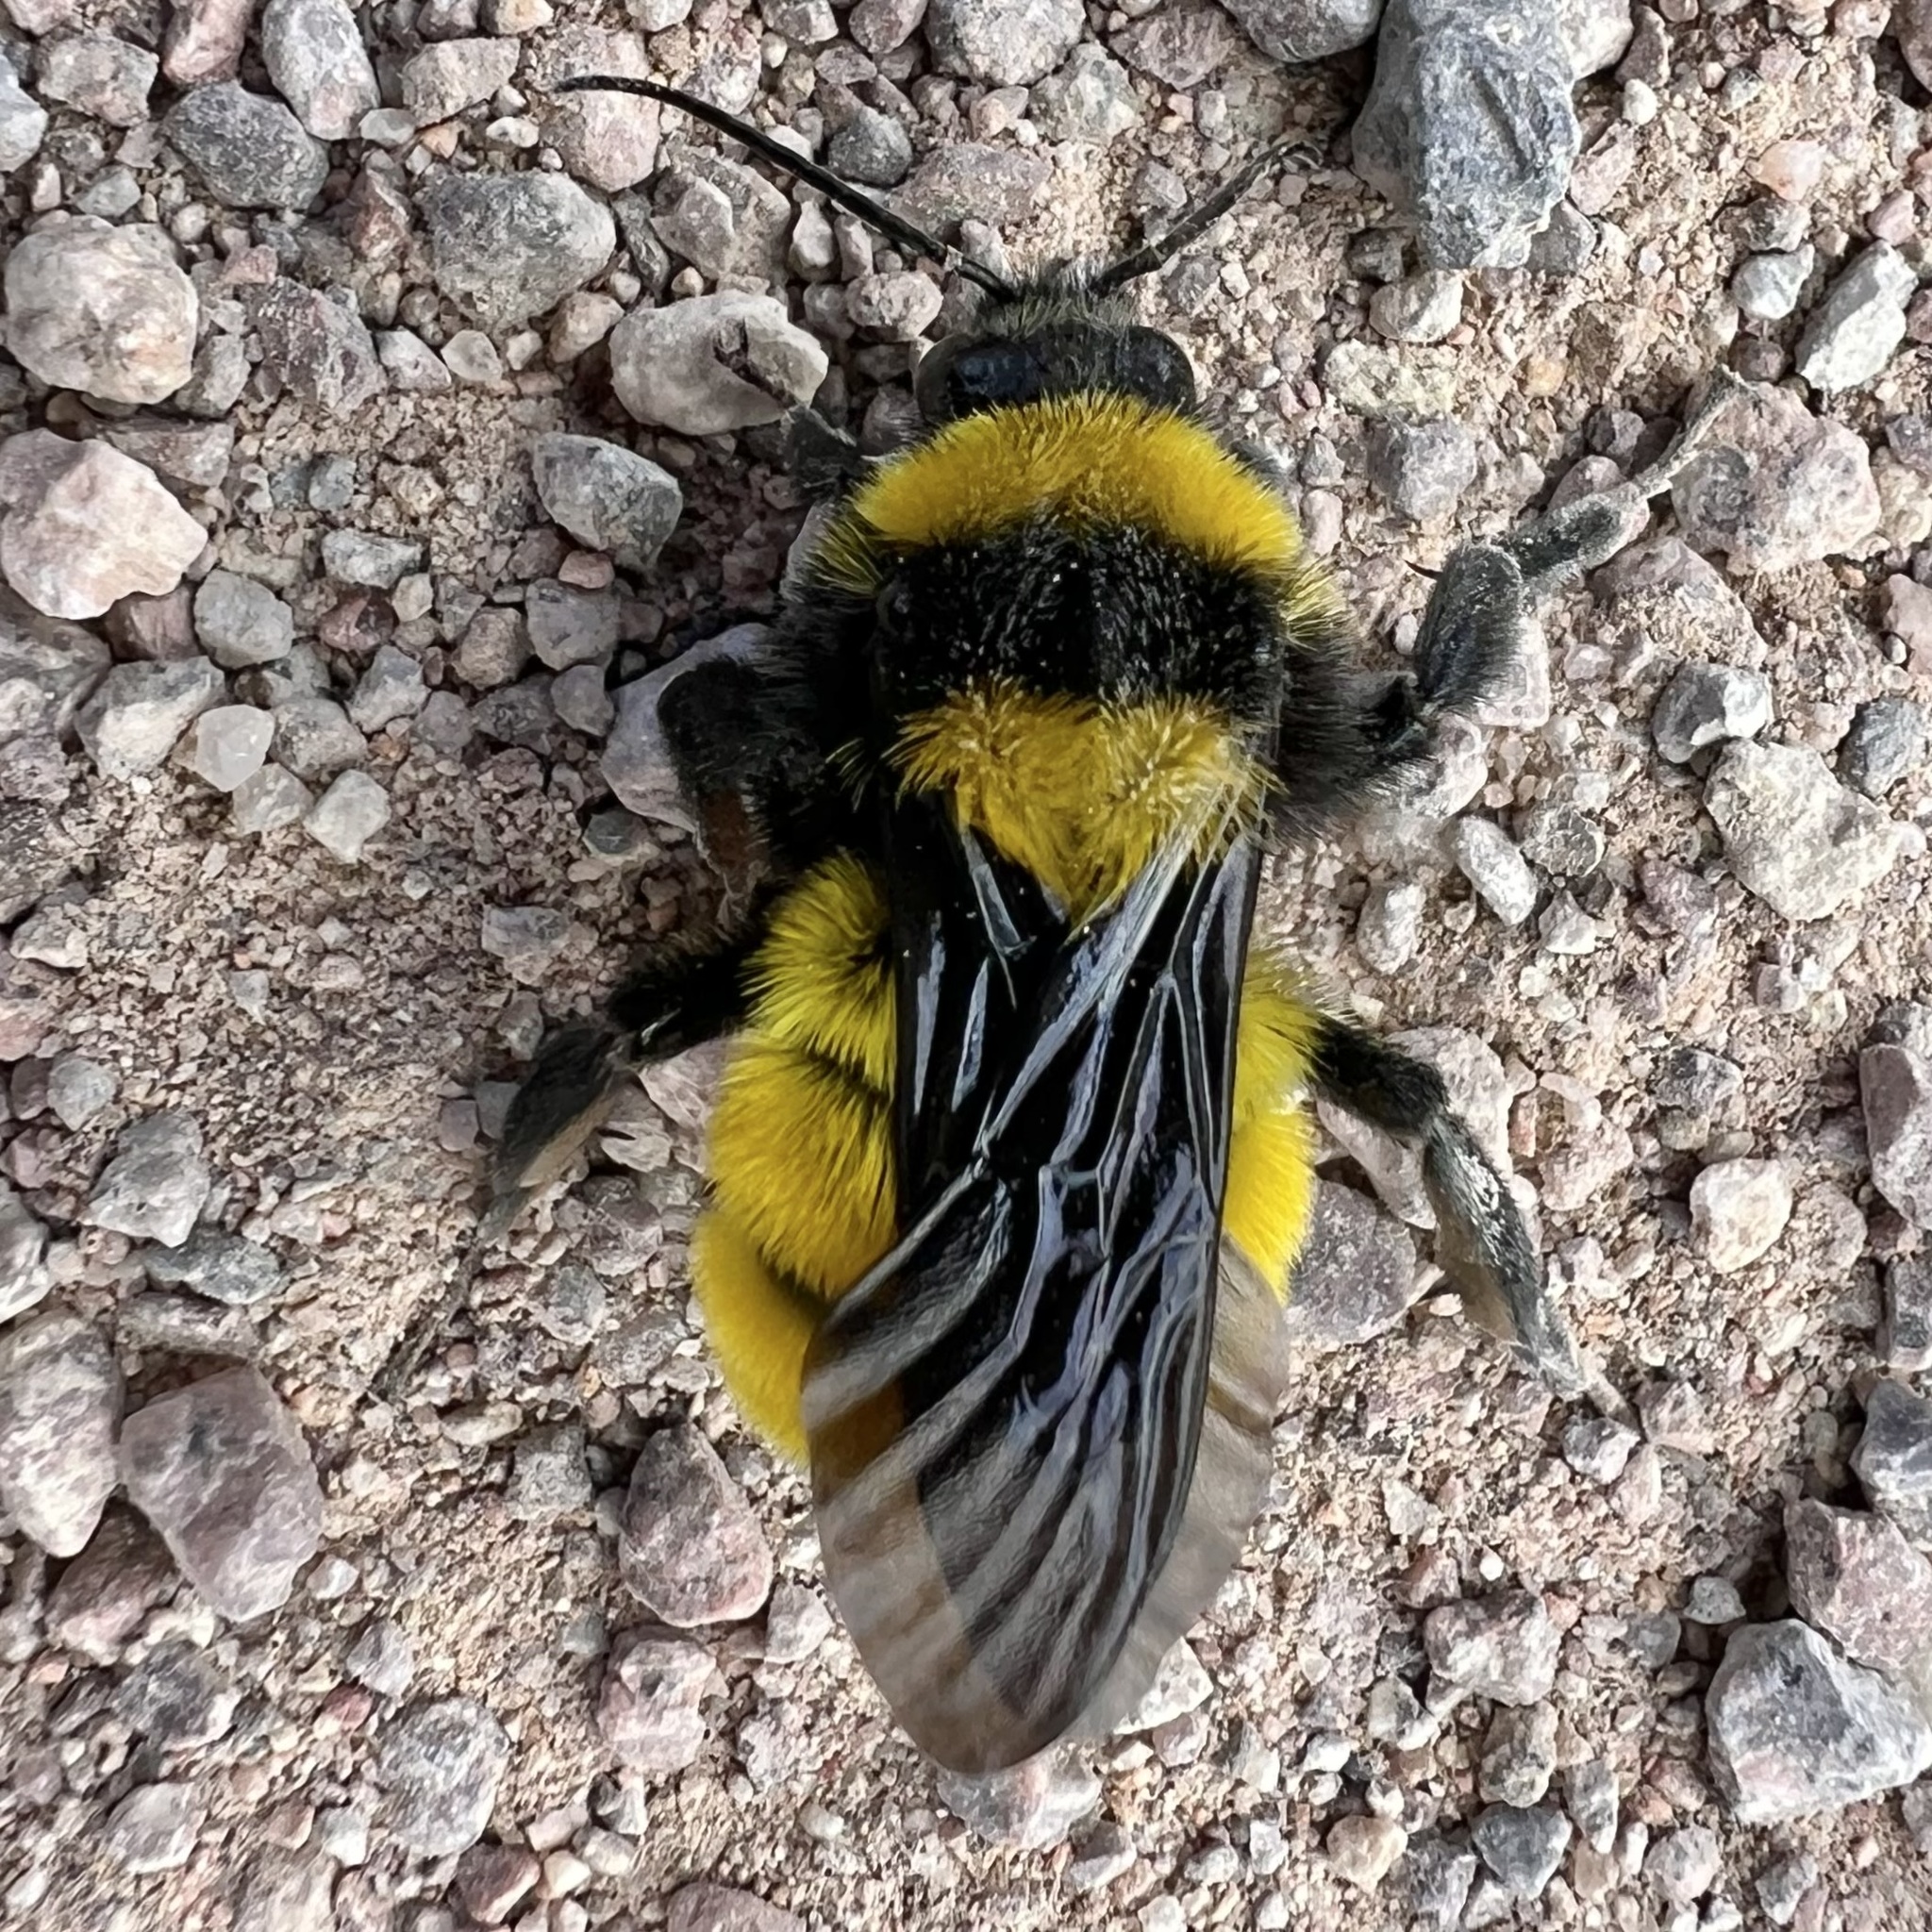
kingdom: Animalia
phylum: Arthropoda
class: Insecta
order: Hymenoptera
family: Apidae
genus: Bombus
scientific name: Bombus sonorus
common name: Sonoran bumble bee
